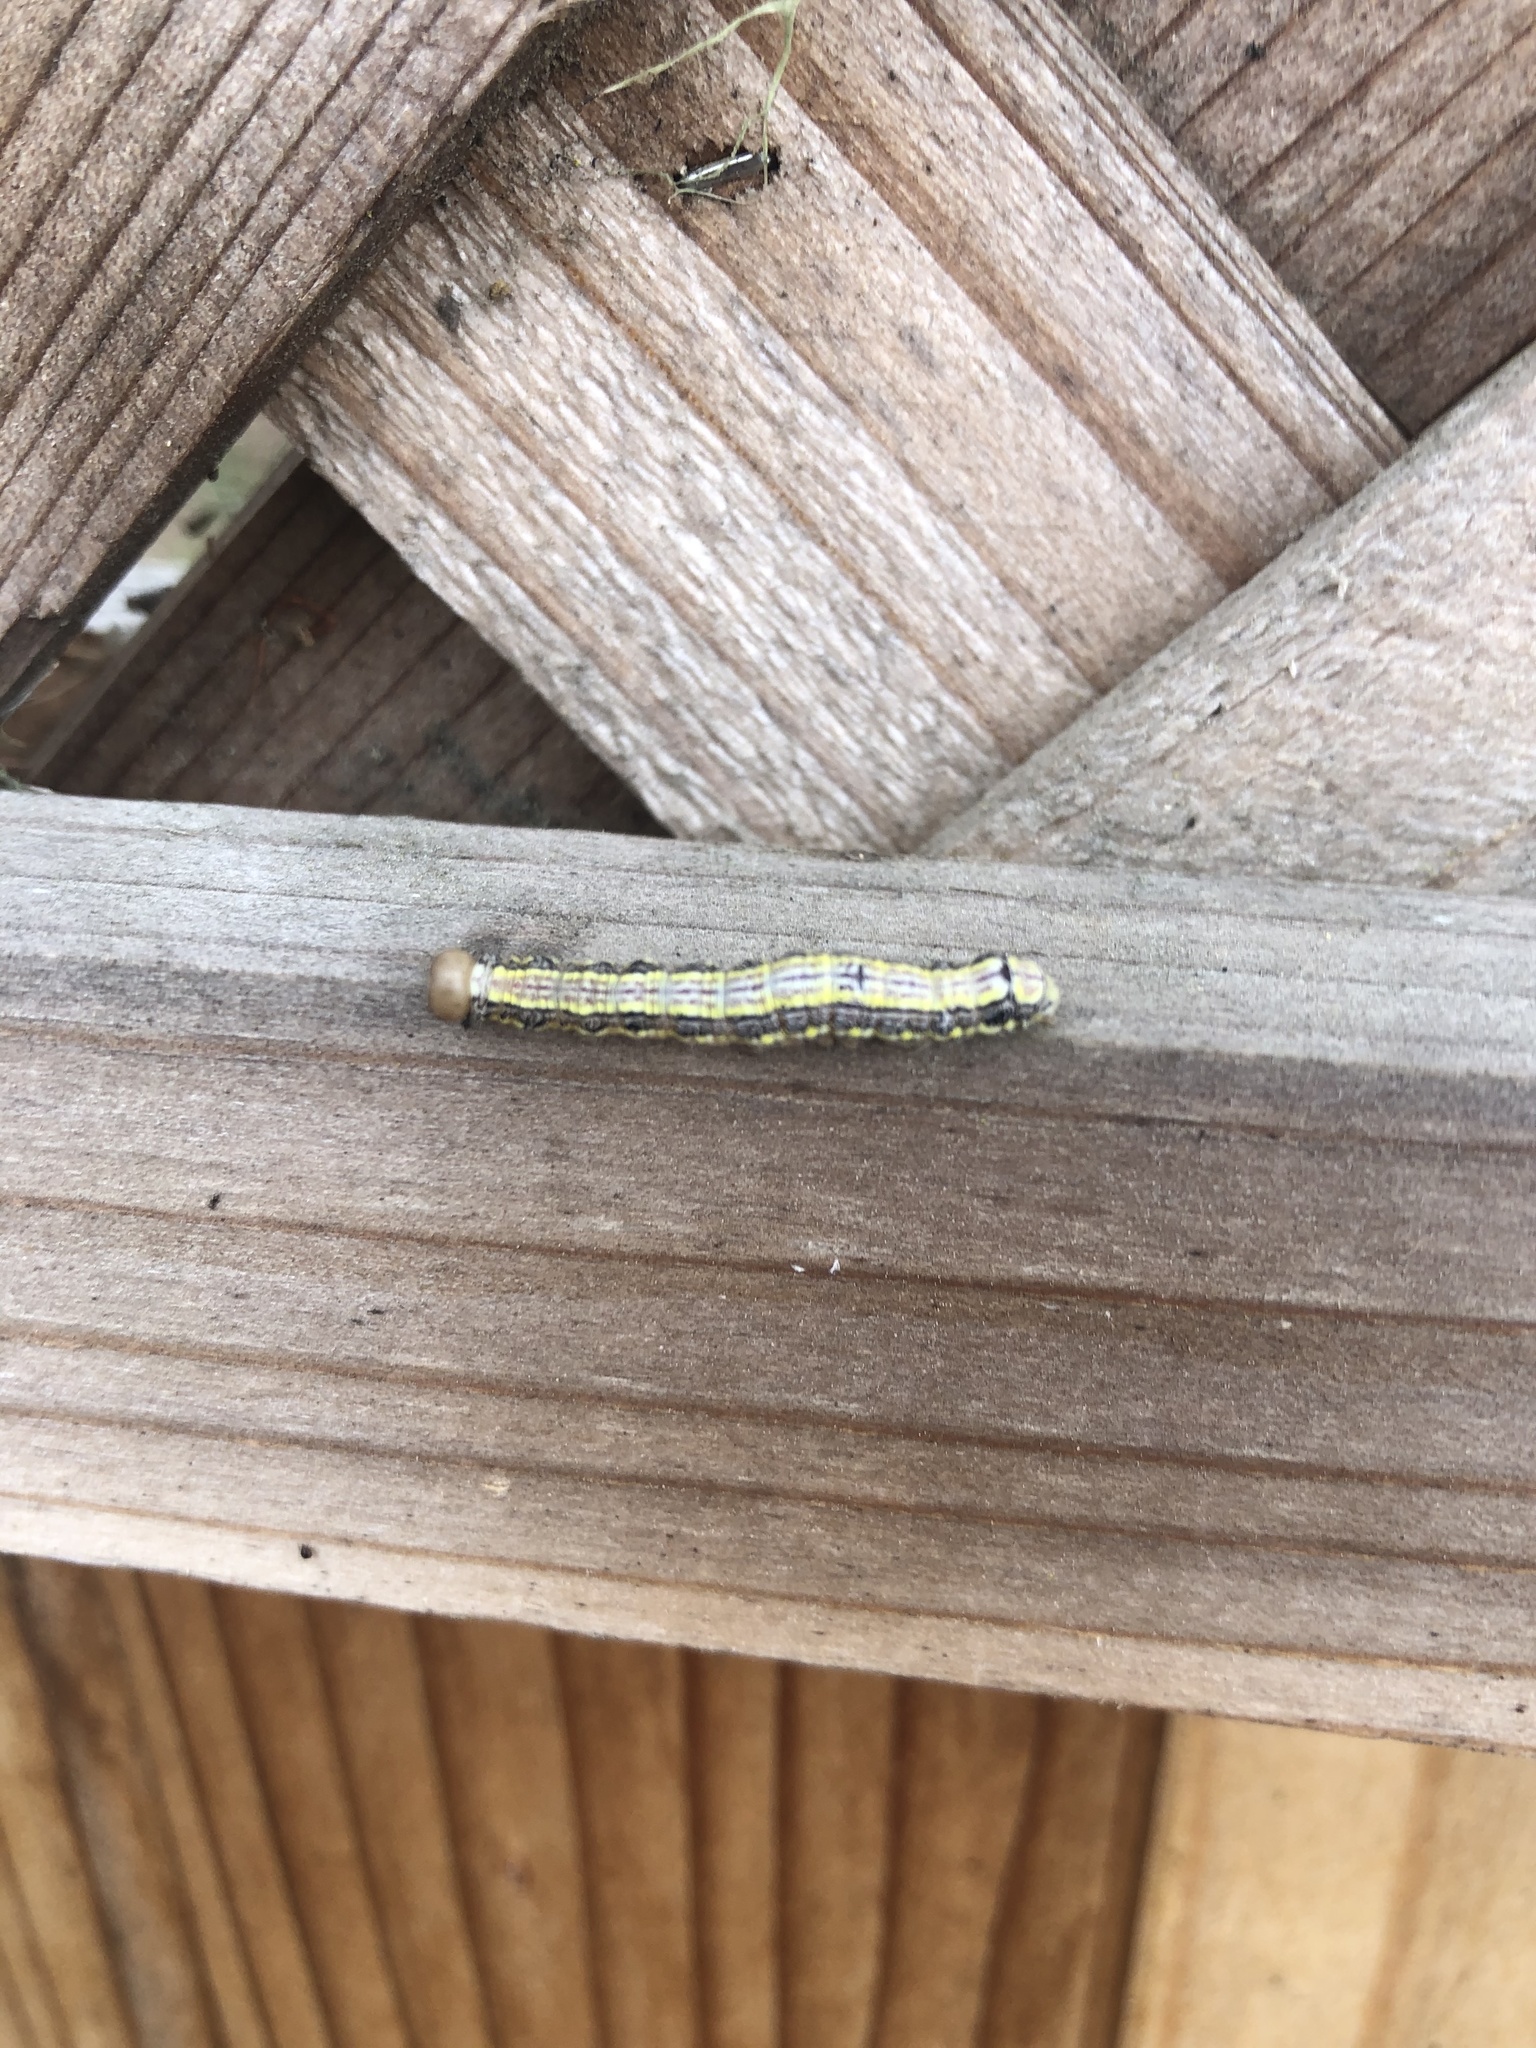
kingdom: Animalia
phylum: Arthropoda
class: Insecta
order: Lepidoptera
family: Notodontidae
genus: Phryganidia
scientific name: Phryganidia californica
